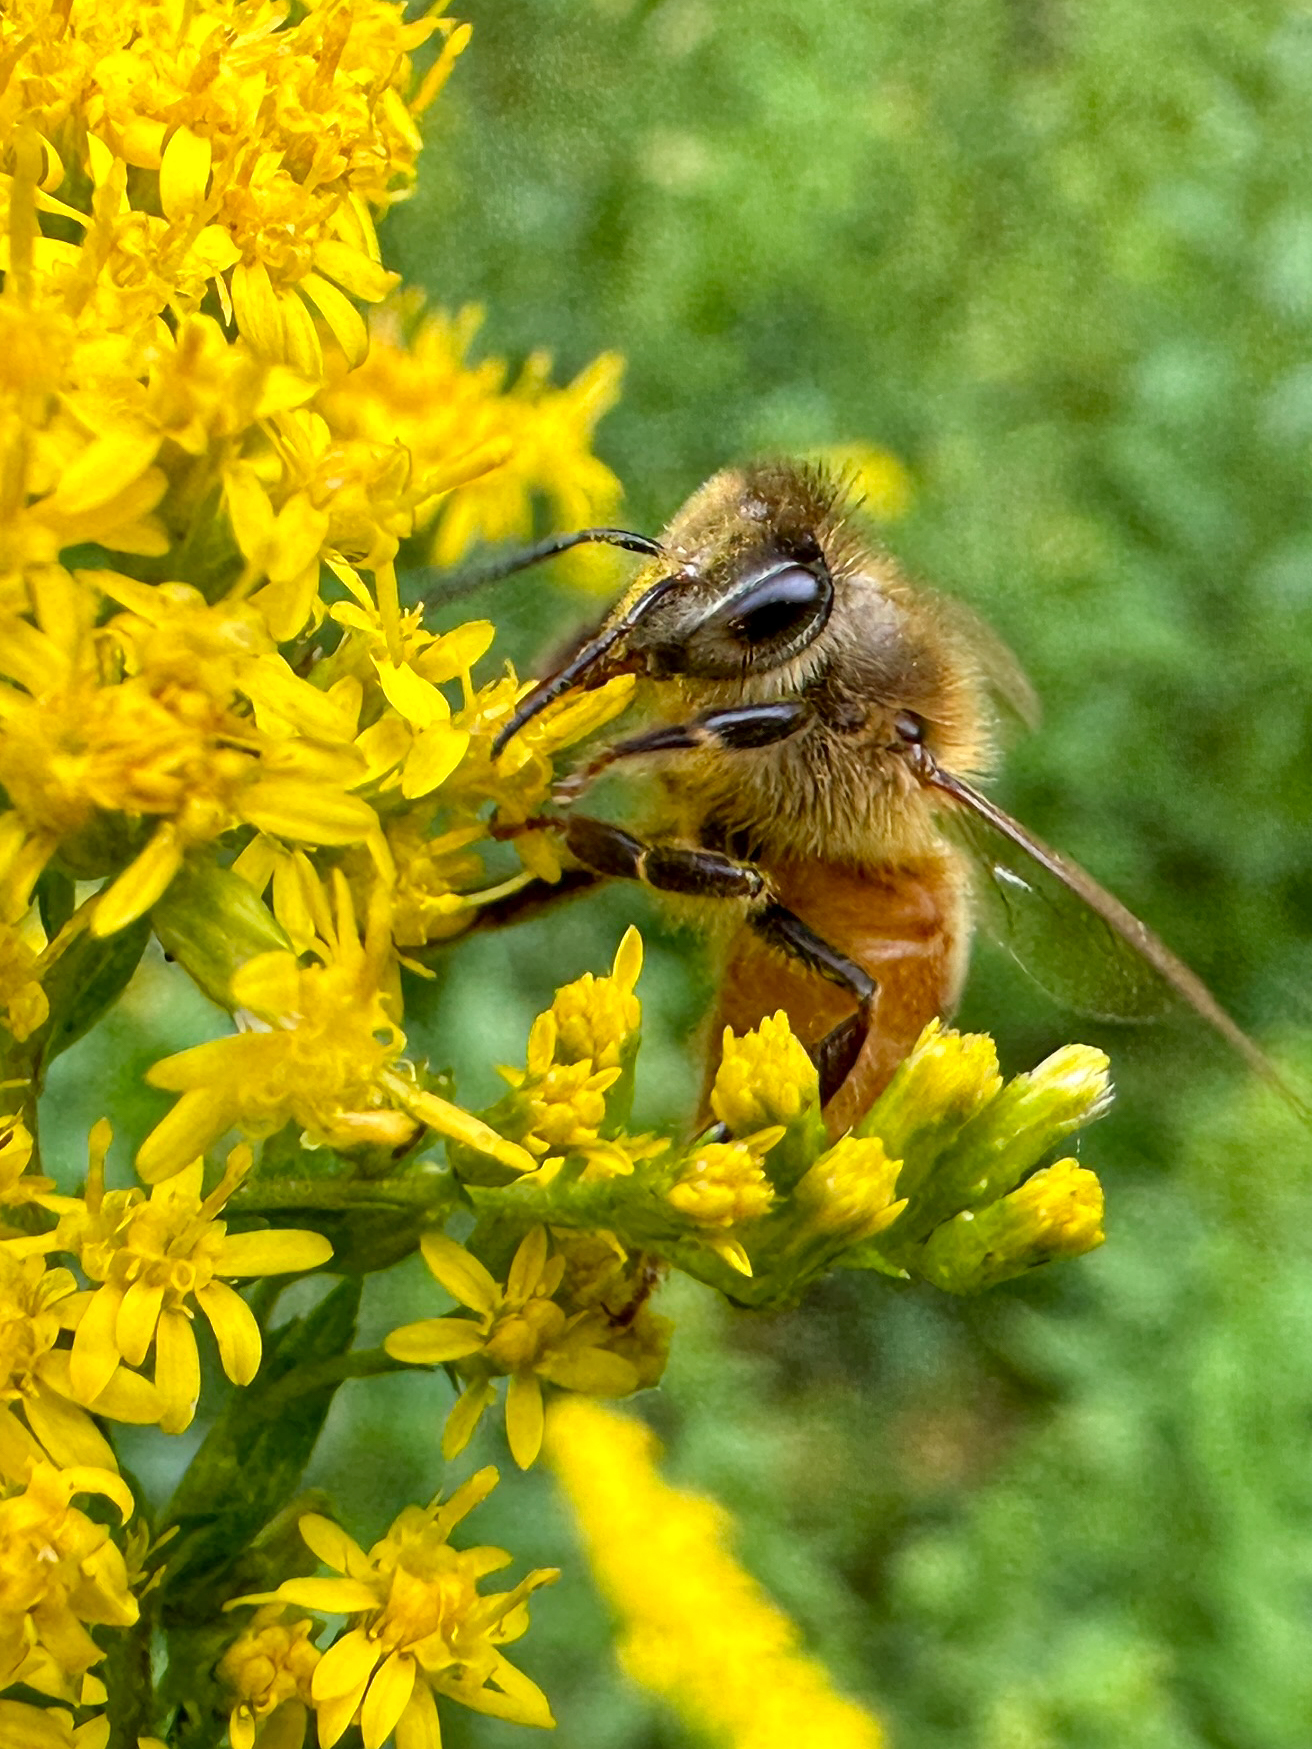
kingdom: Animalia
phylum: Arthropoda
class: Insecta
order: Hymenoptera
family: Apidae
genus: Apis
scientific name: Apis mellifera
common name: Honey bee
